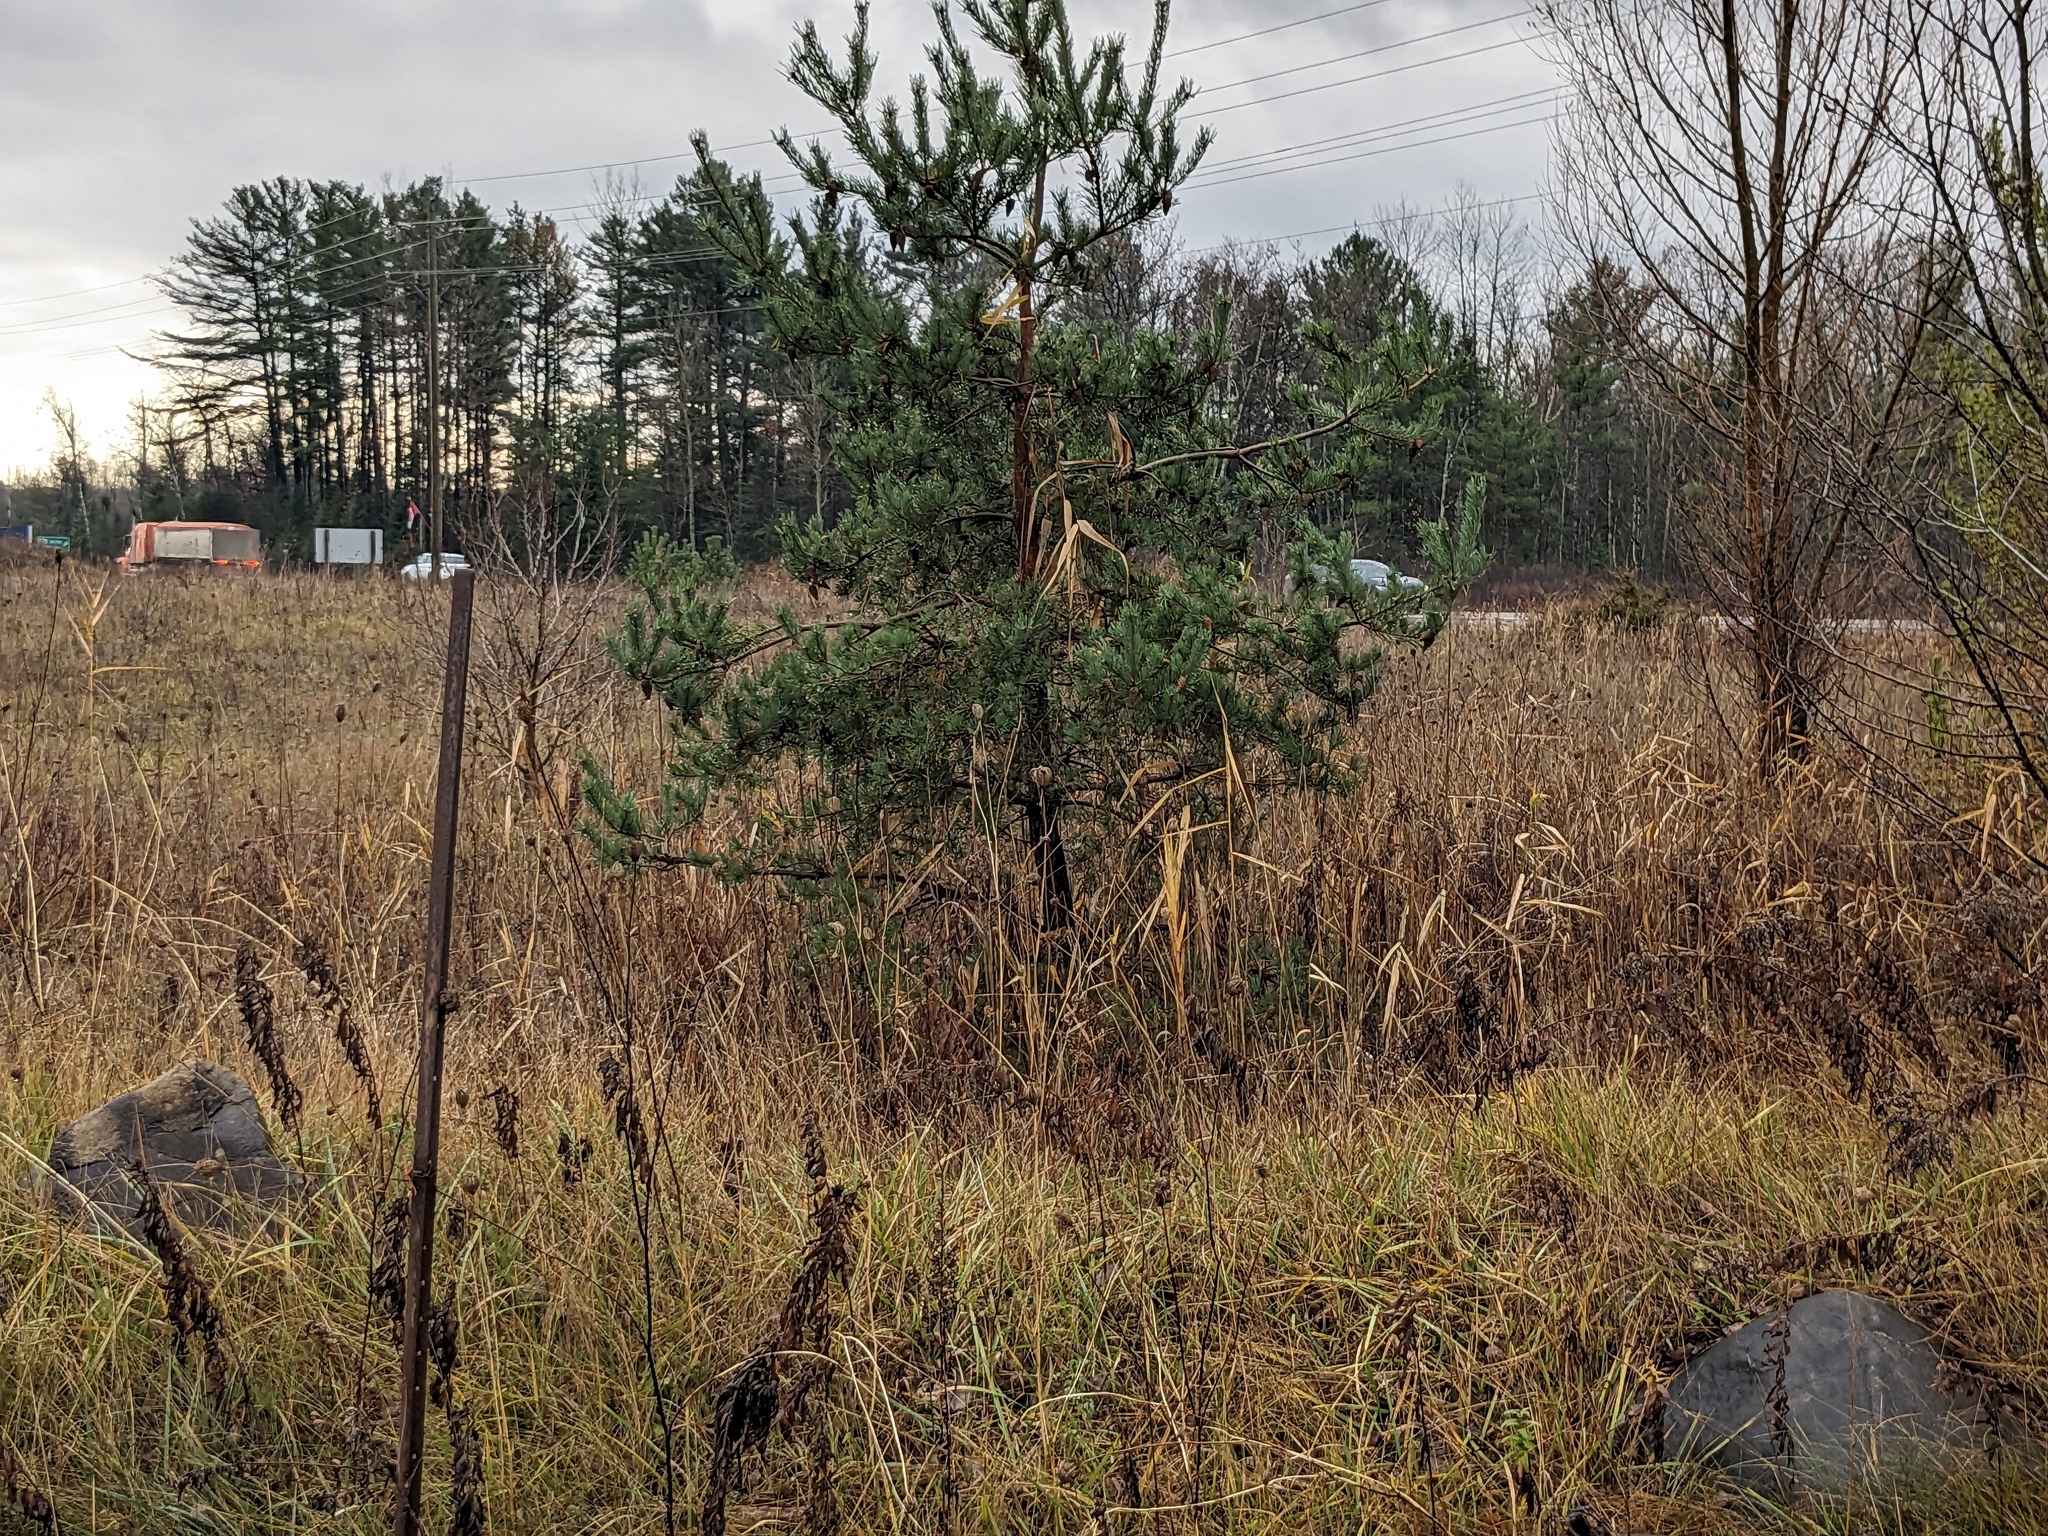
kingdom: Plantae
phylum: Tracheophyta
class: Liliopsida
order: Poales
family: Poaceae
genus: Phragmites
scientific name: Phragmites australis
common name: Common reed
